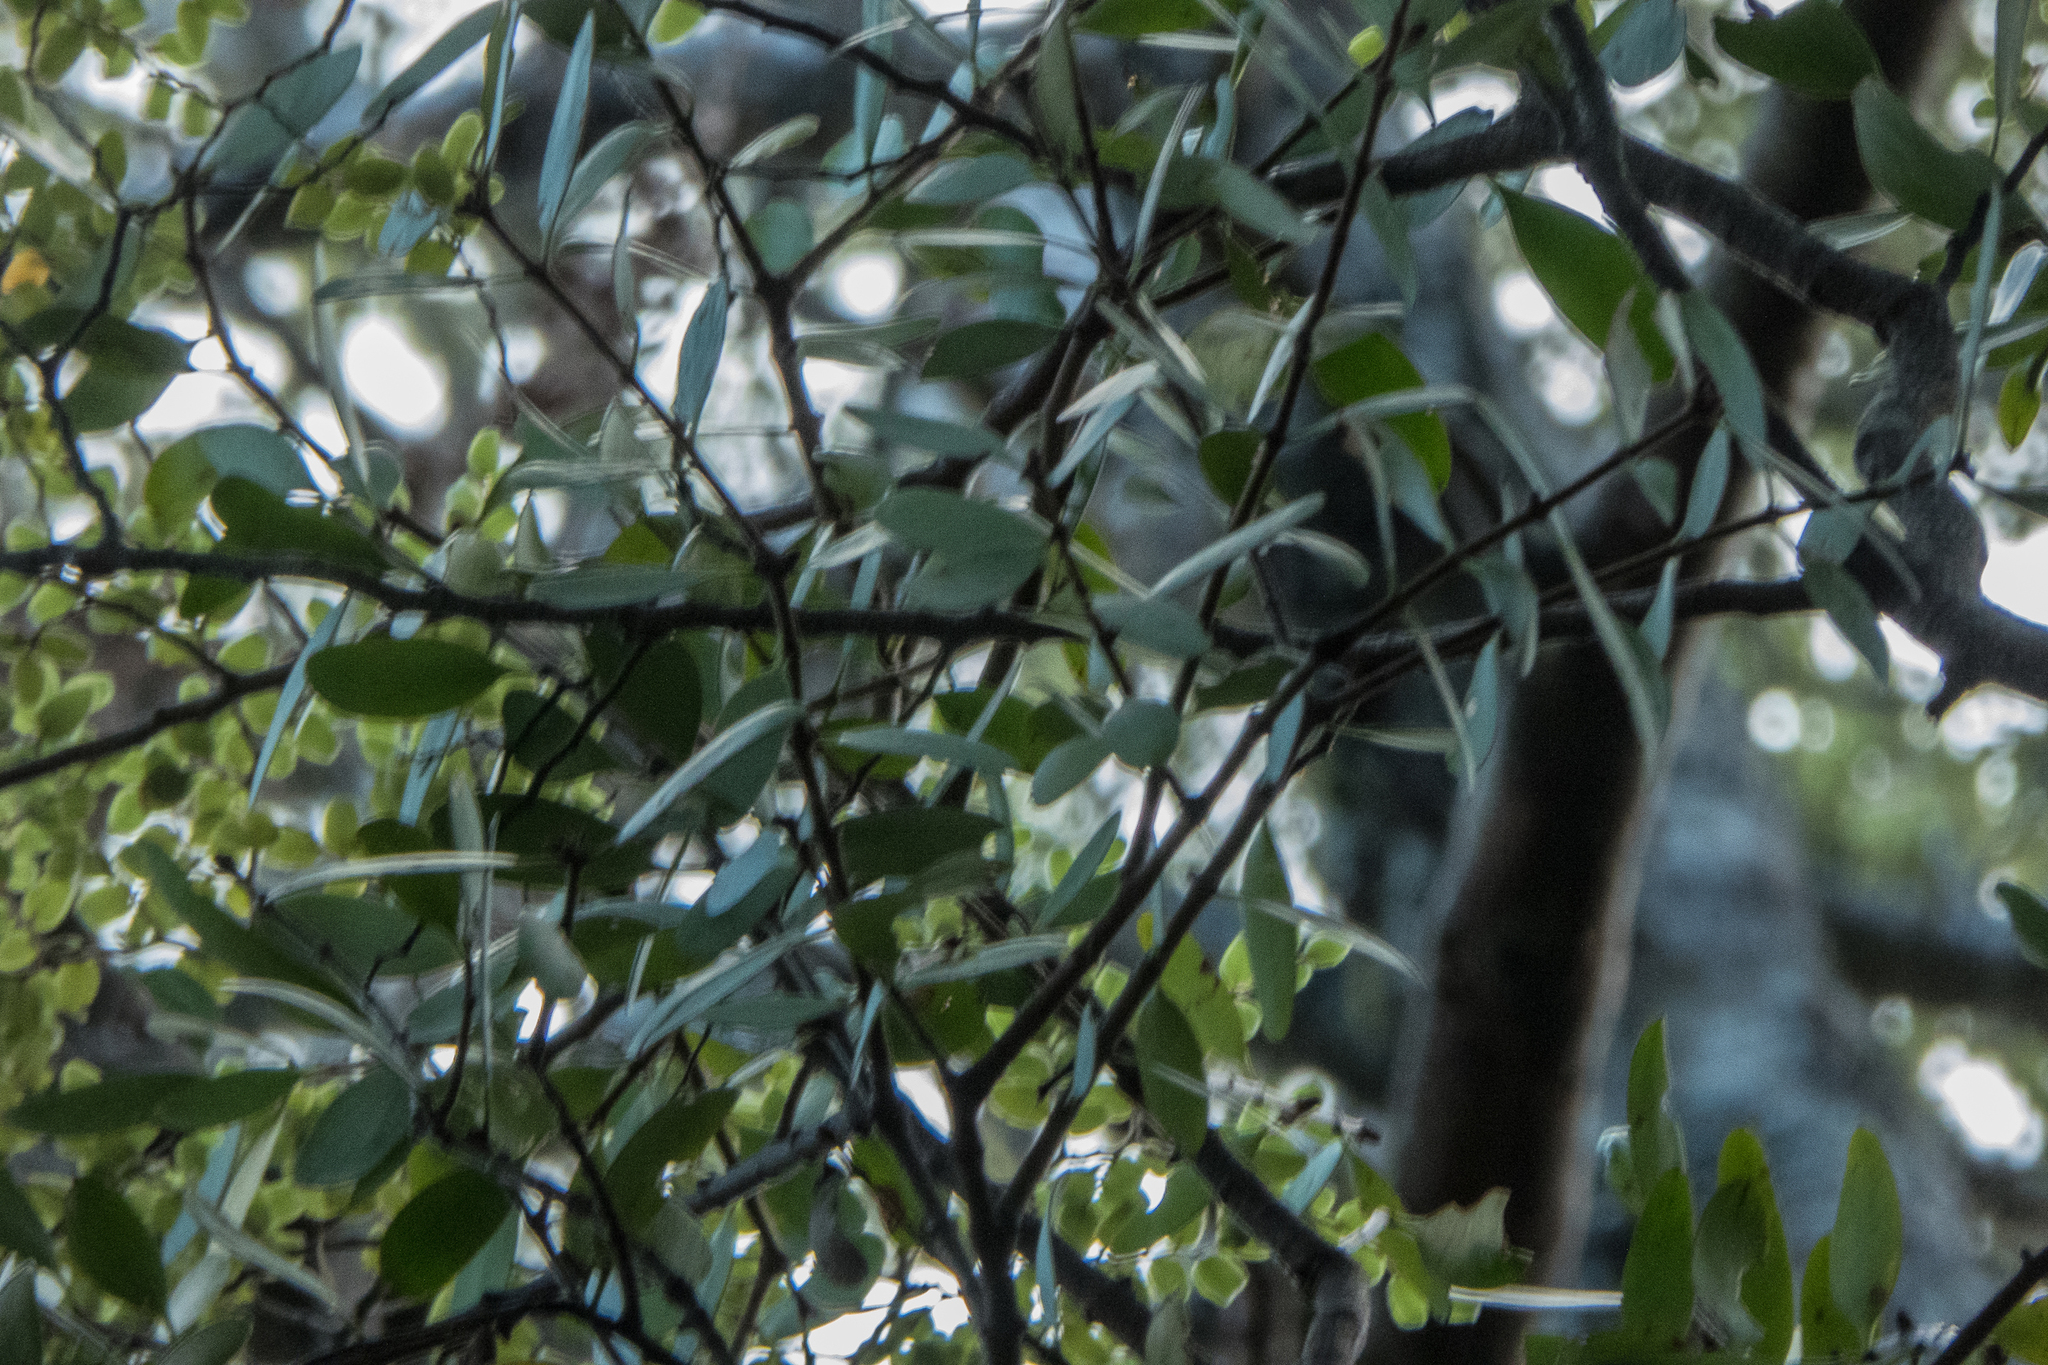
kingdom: Plantae
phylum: Tracheophyta
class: Magnoliopsida
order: Santalales
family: Loranthaceae
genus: Alepis
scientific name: Alepis flavida
